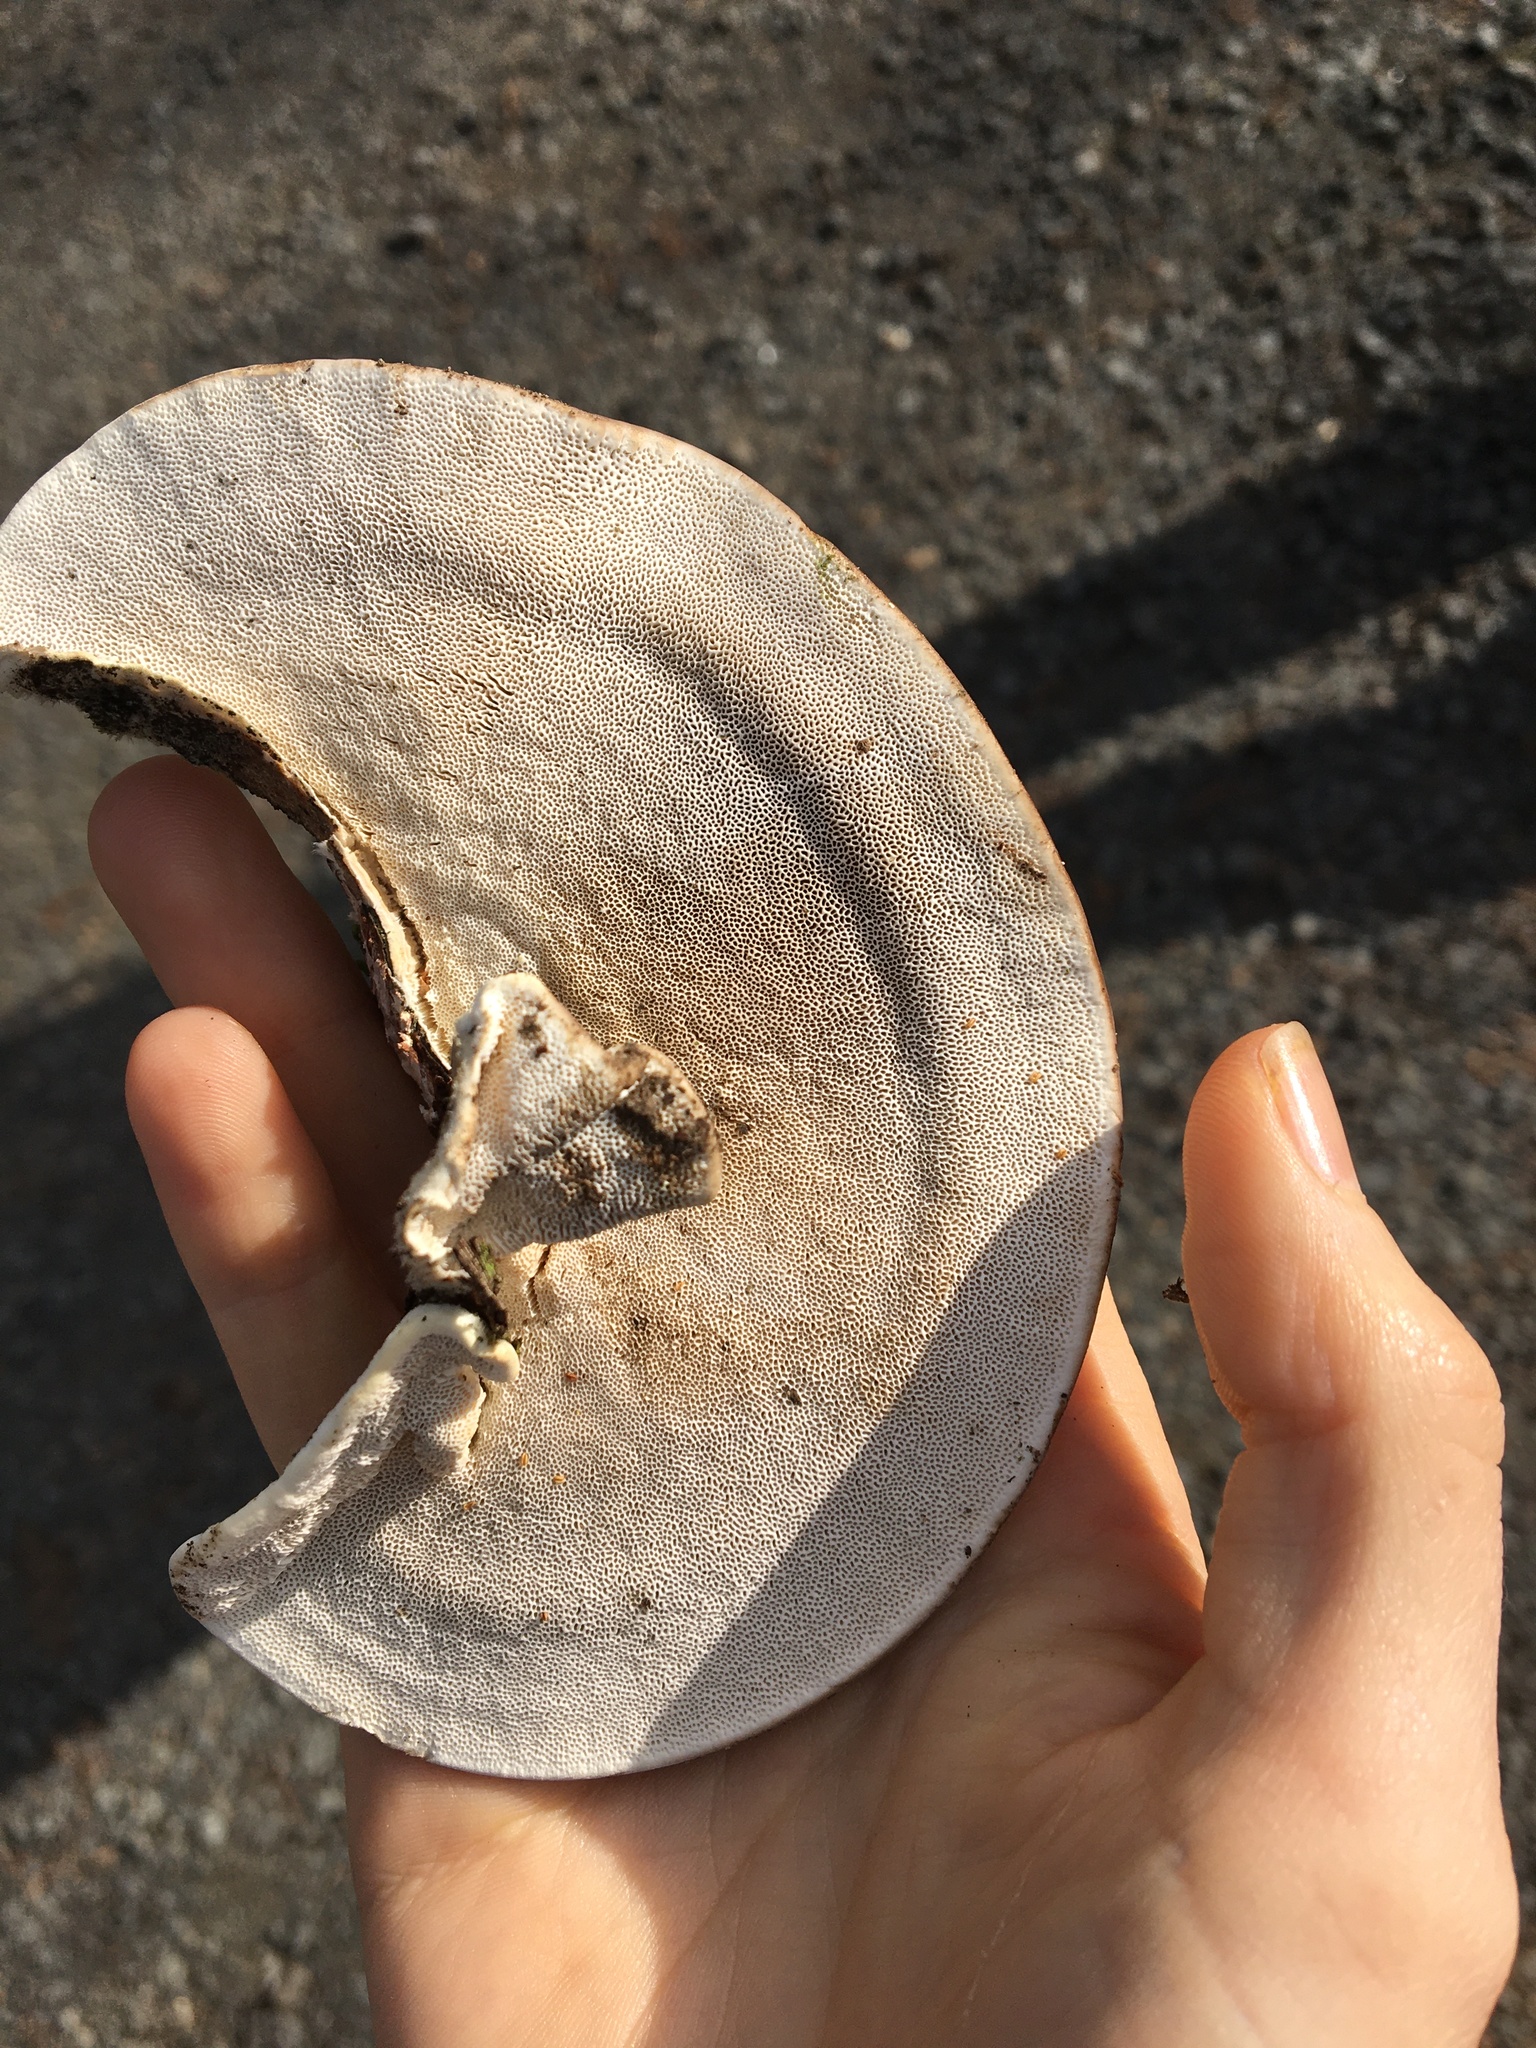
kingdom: Fungi
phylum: Basidiomycota
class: Agaricomycetes
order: Polyporales
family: Polyporaceae
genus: Trametes
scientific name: Trametes hirsuta
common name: Hairy bracket
